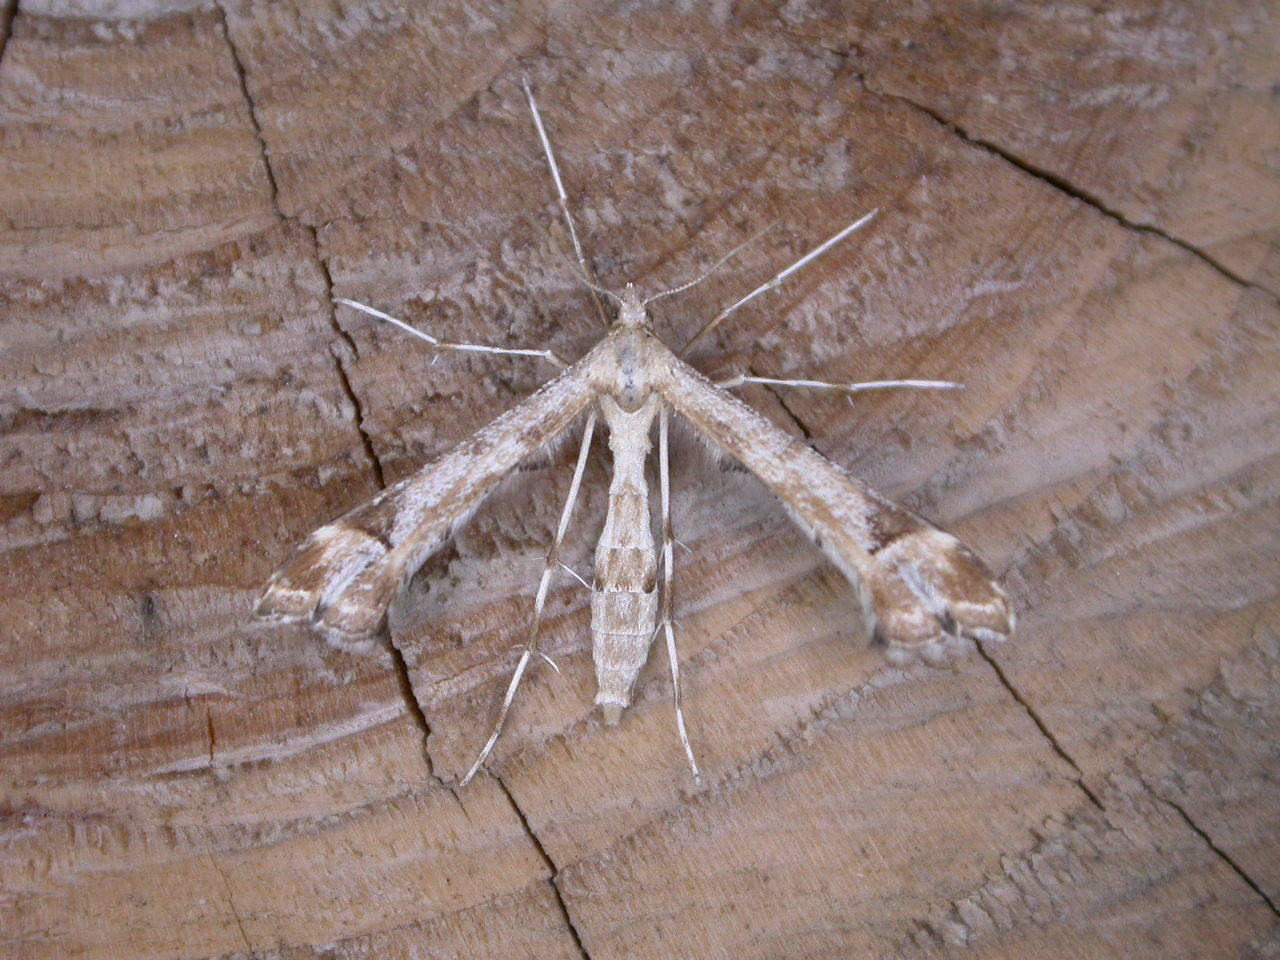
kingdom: Animalia
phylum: Arthropoda
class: Insecta
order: Lepidoptera
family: Pterophoridae
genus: Platyptilia
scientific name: Platyptilia gonodactyla
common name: Triangle plume
